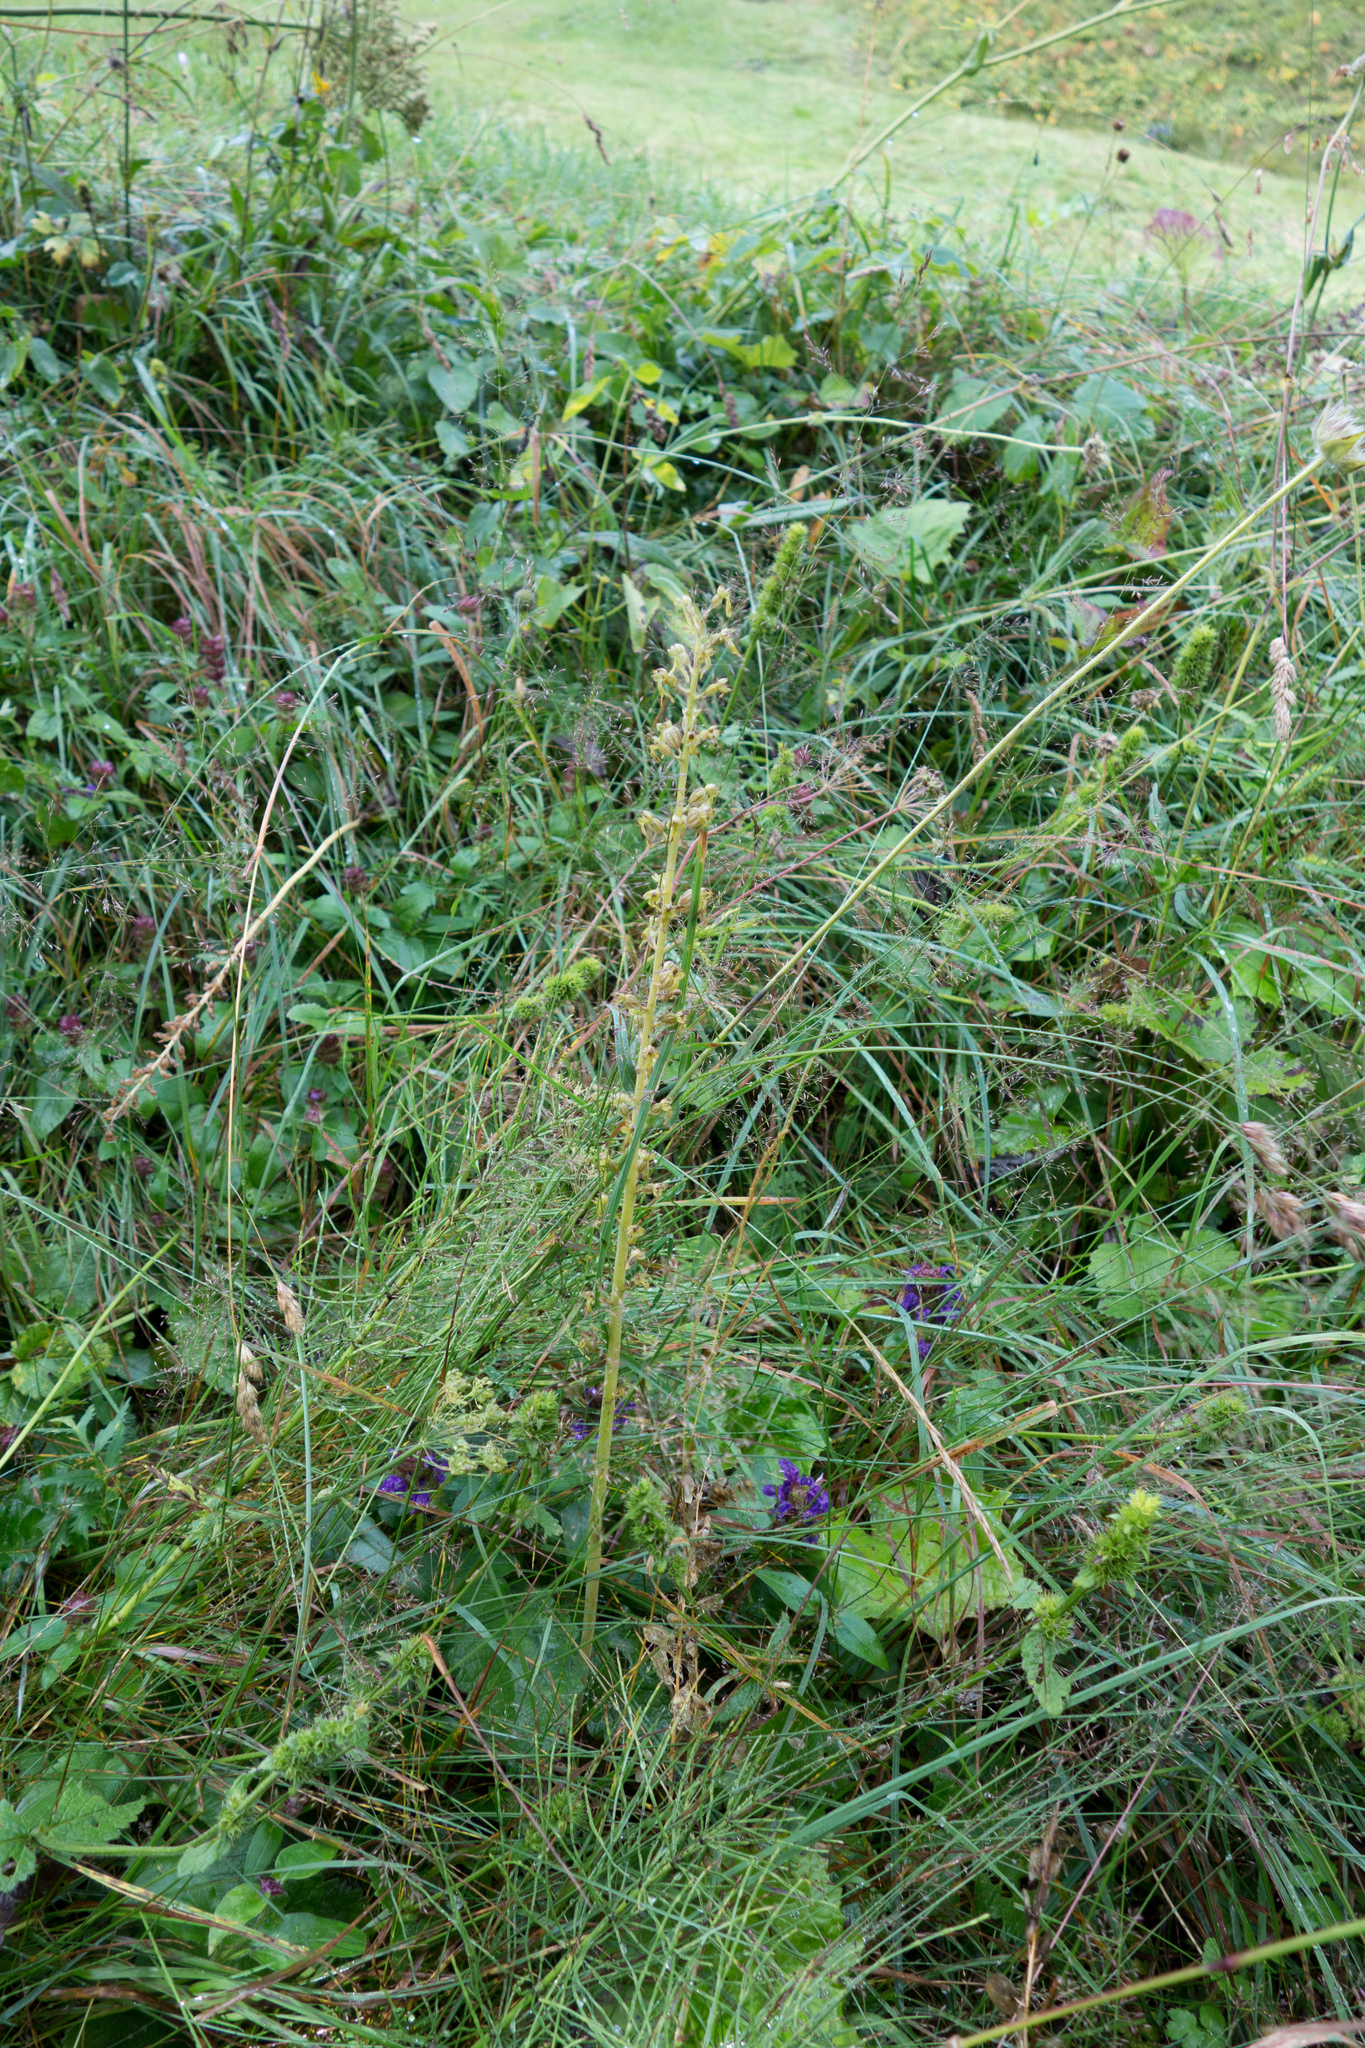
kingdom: Plantae
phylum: Tracheophyta
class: Liliopsida
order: Asparagales
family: Orchidaceae
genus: Neottia
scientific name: Neottia ovata
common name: Common twayblade
